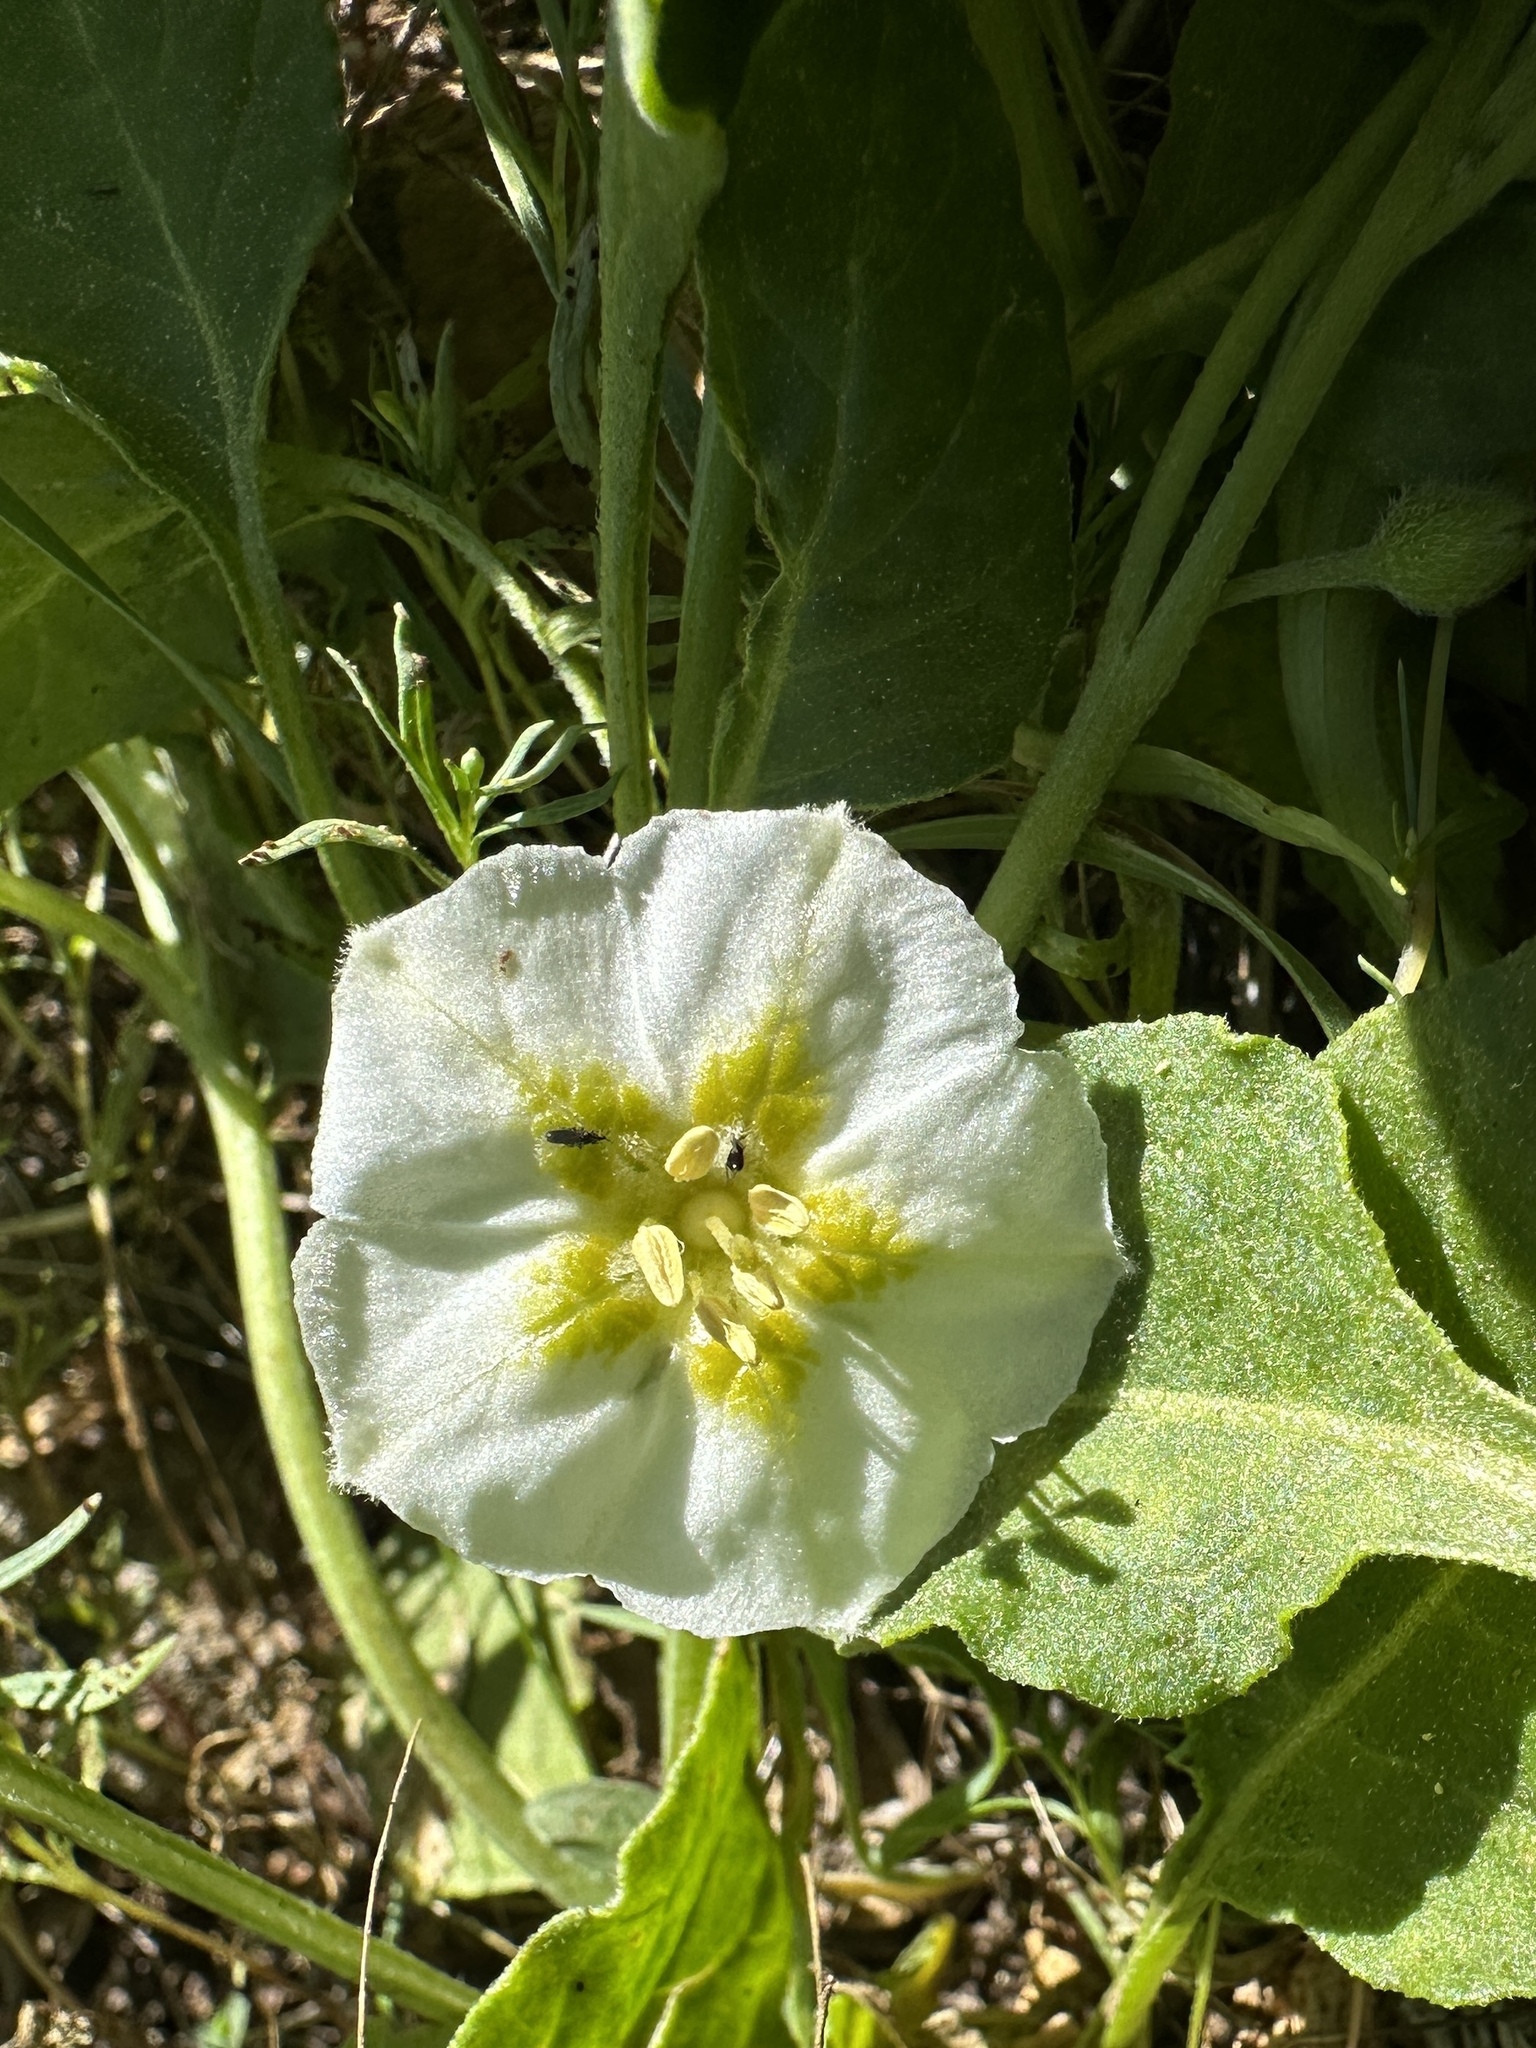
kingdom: Plantae
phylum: Tracheophyta
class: Magnoliopsida
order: Solanales
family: Solanaceae
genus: Leucophysalis
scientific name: Leucophysalis nana
